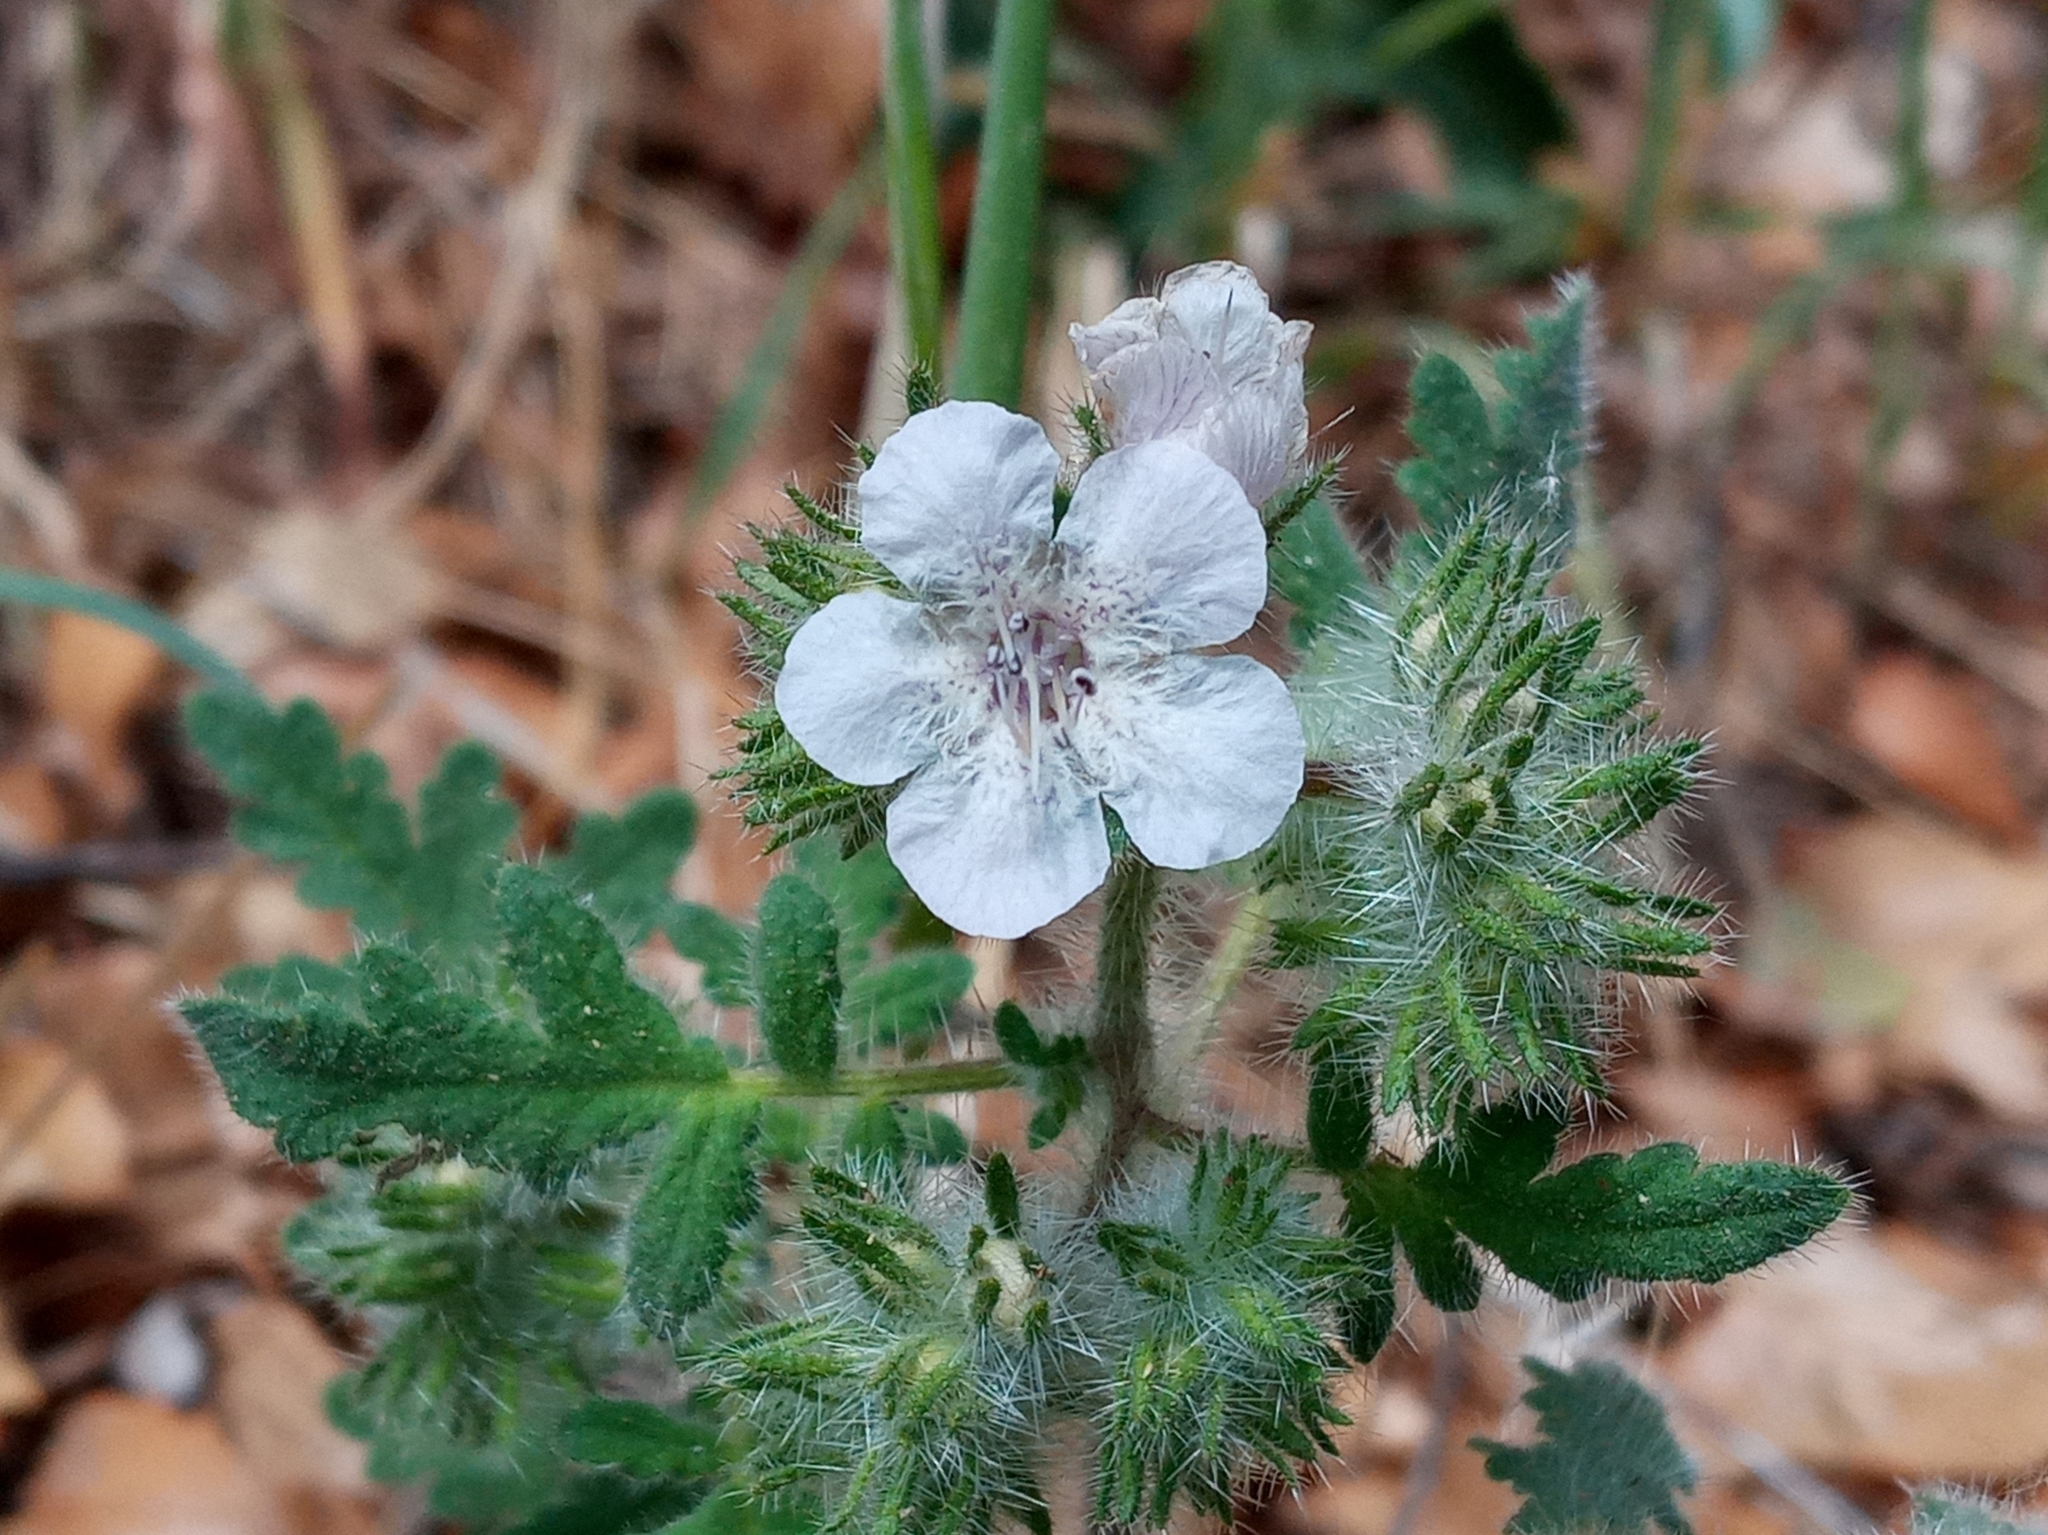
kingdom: Plantae
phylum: Tracheophyta
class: Magnoliopsida
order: Boraginales
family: Hydrophyllaceae
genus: Phacelia
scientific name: Phacelia cicutaria
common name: Caterpillar phacelia
